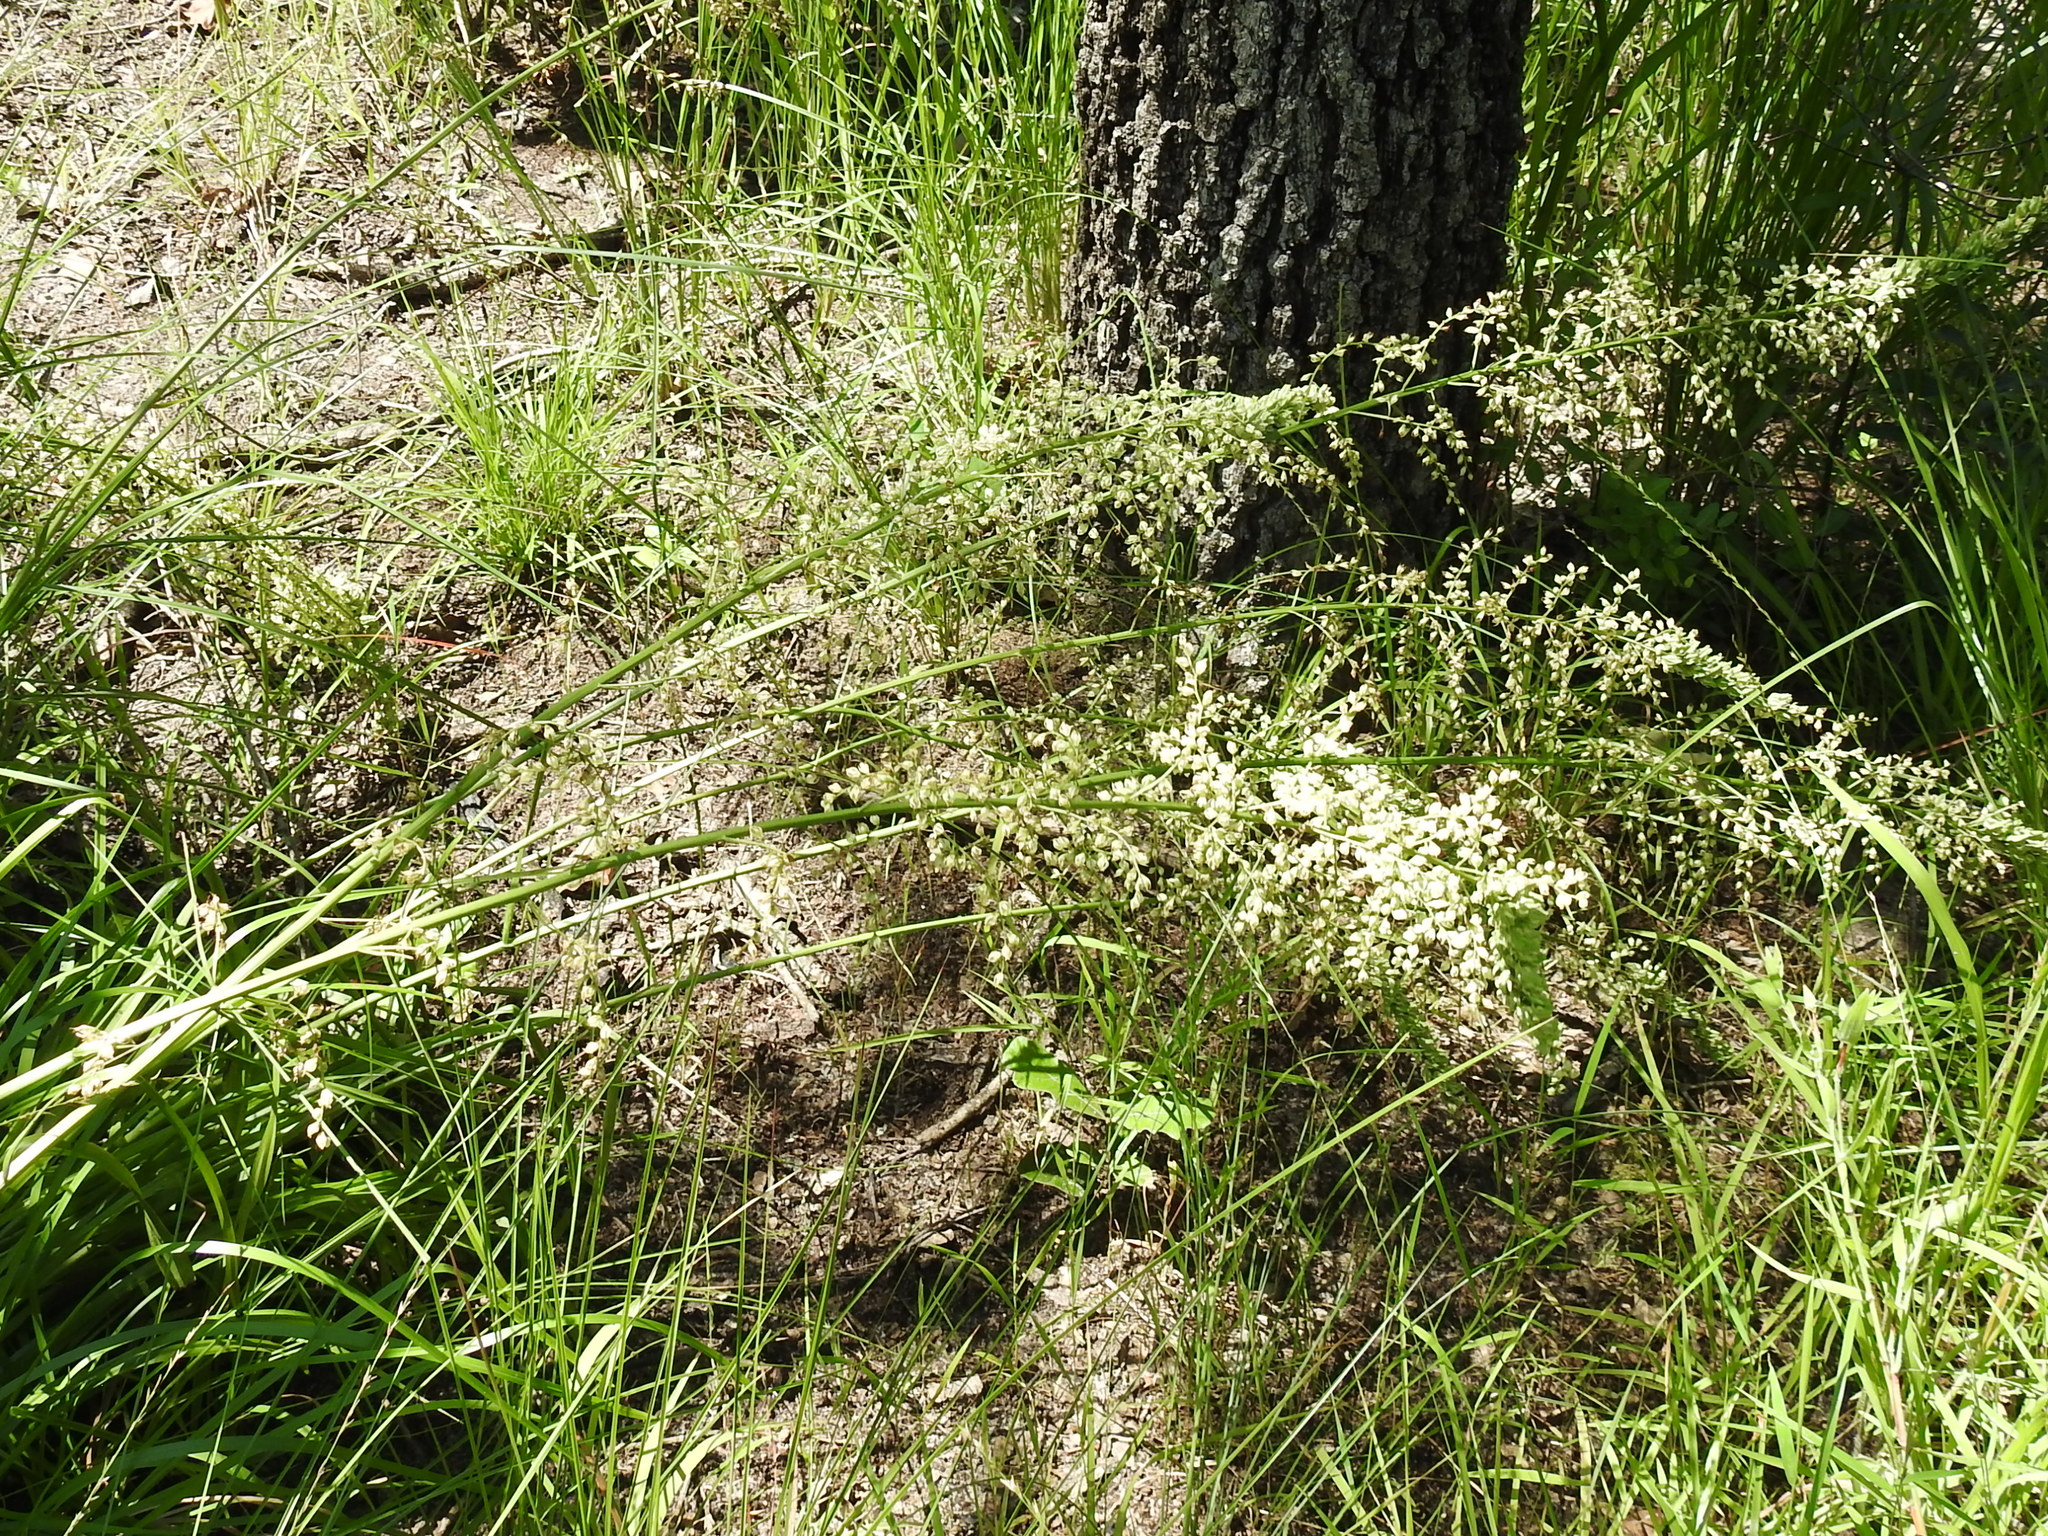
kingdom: Plantae
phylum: Tracheophyta
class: Liliopsida
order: Liliales
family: Melanthiaceae
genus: Stenanthium
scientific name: Stenanthium gramineum
